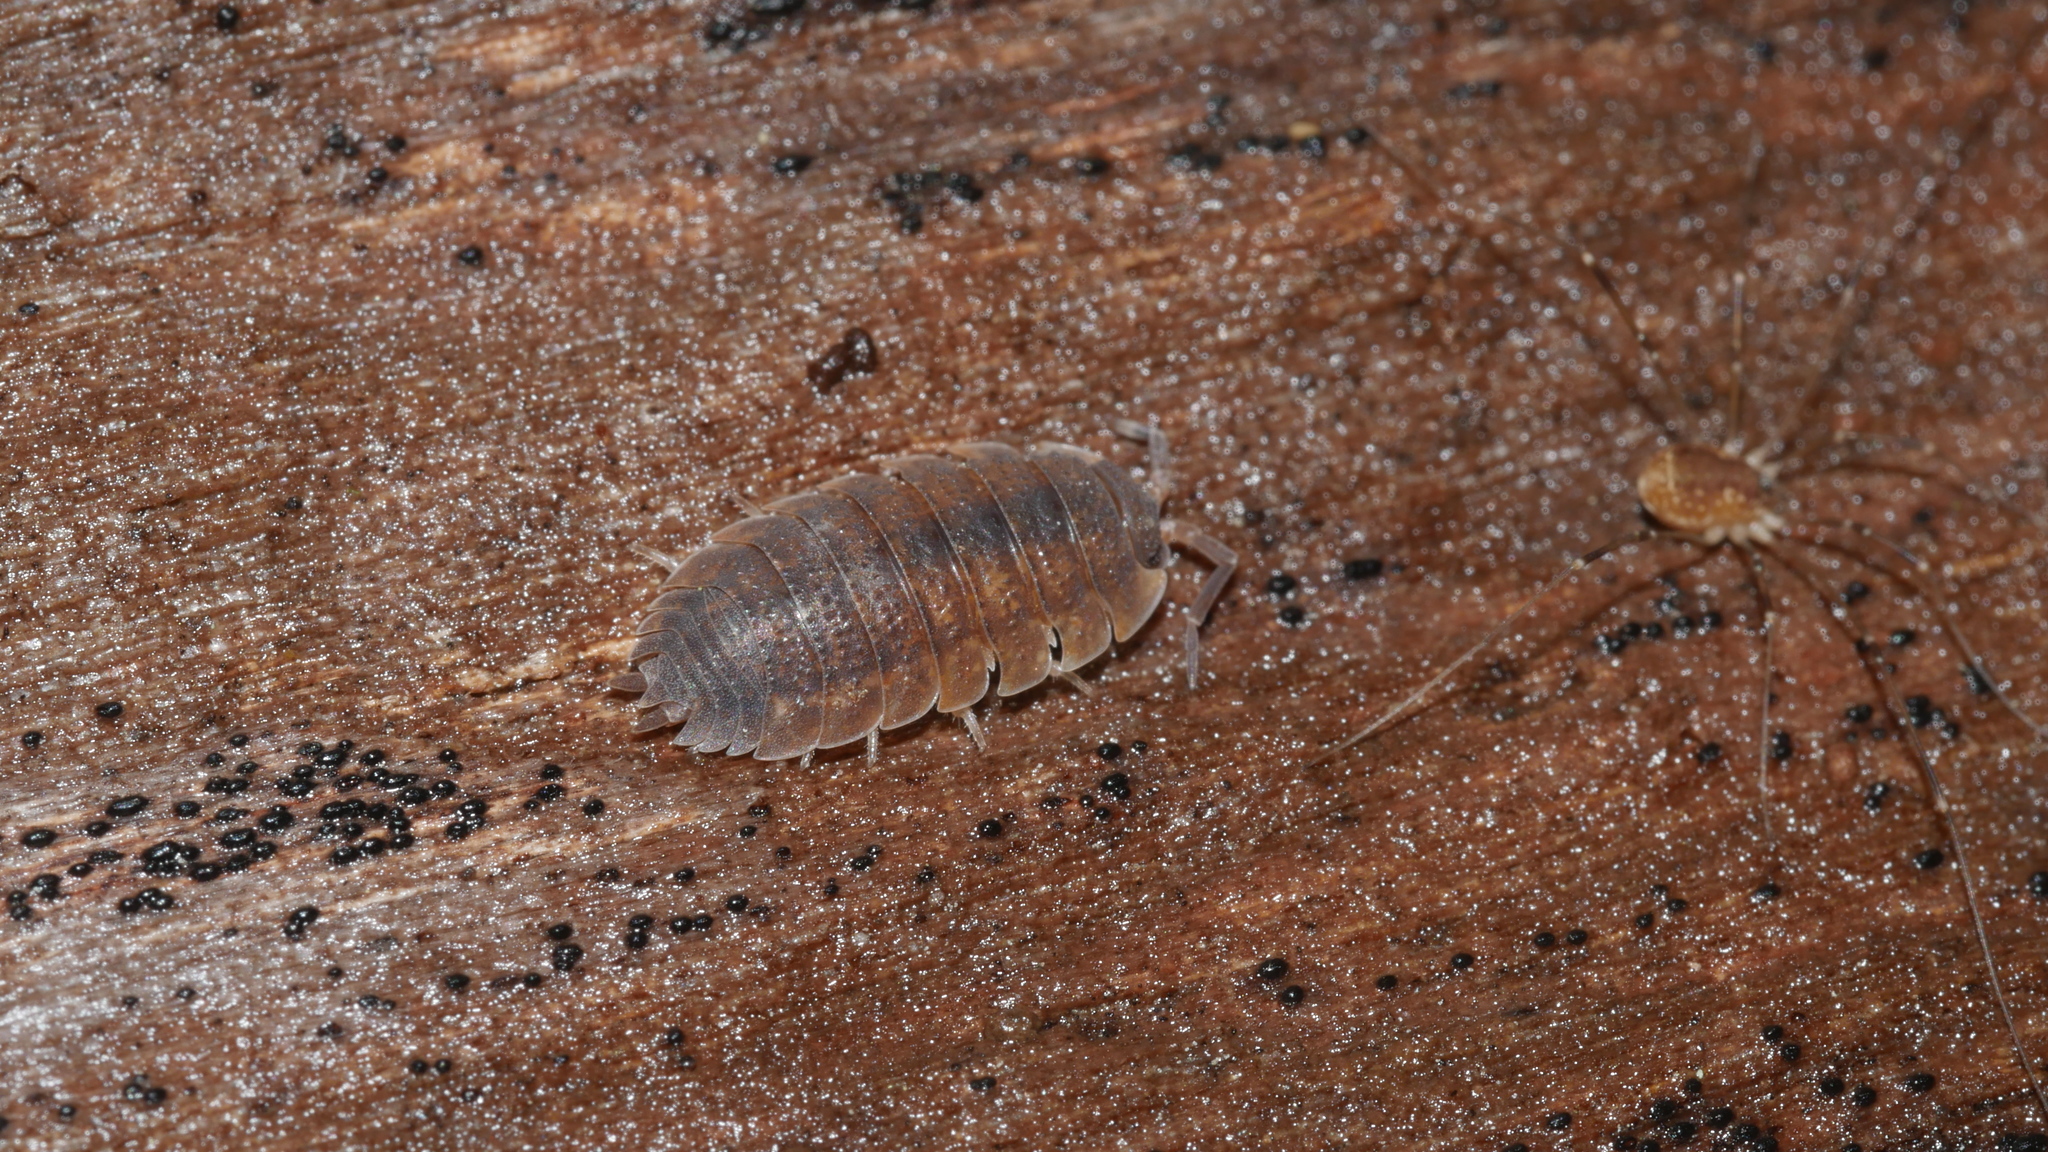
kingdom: Animalia
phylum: Arthropoda
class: Malacostraca
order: Isopoda
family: Porcellionidae
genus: Porcellio
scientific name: Porcellio scaber
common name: Common rough woodlouse
